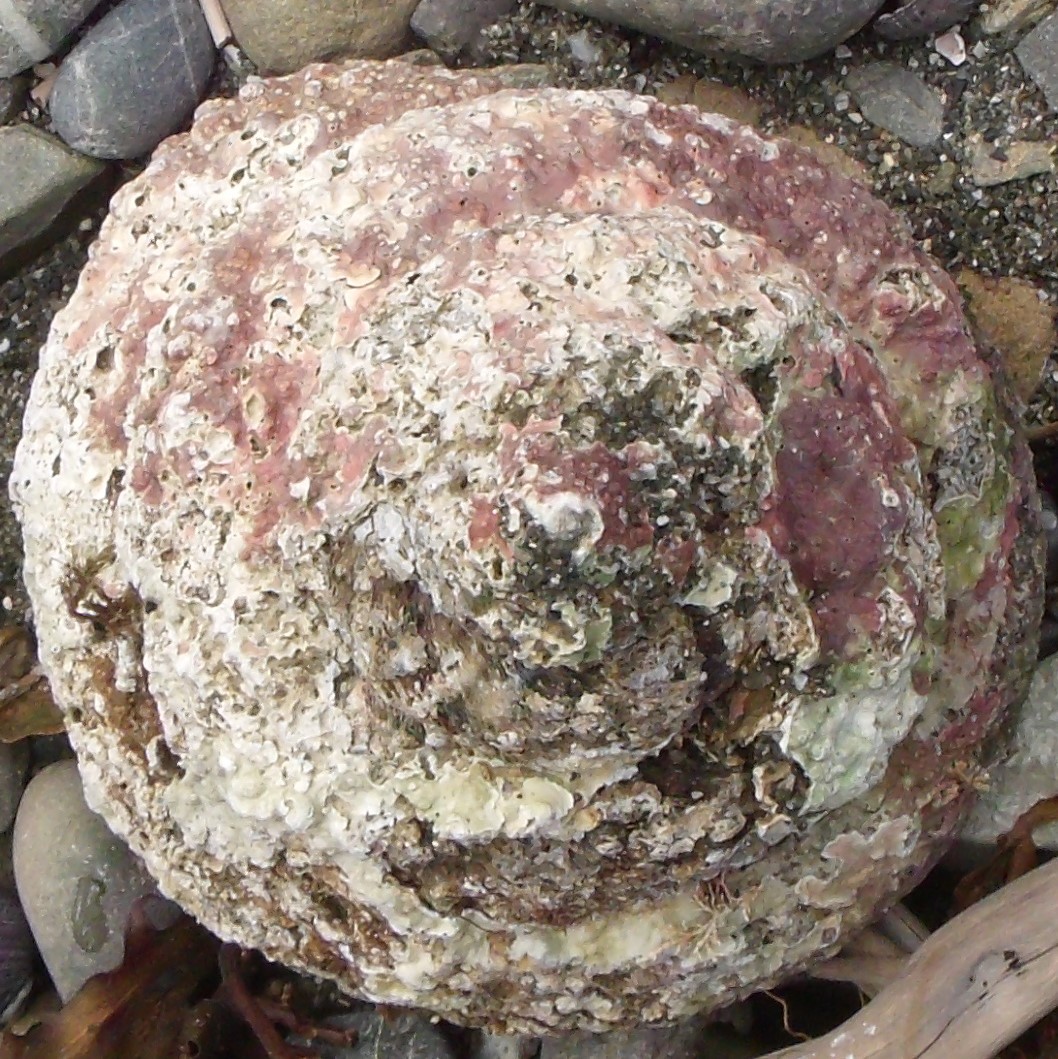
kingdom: Animalia
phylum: Mollusca
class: Gastropoda
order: Trochida
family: Turbinidae
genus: Cookia
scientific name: Cookia sulcata
